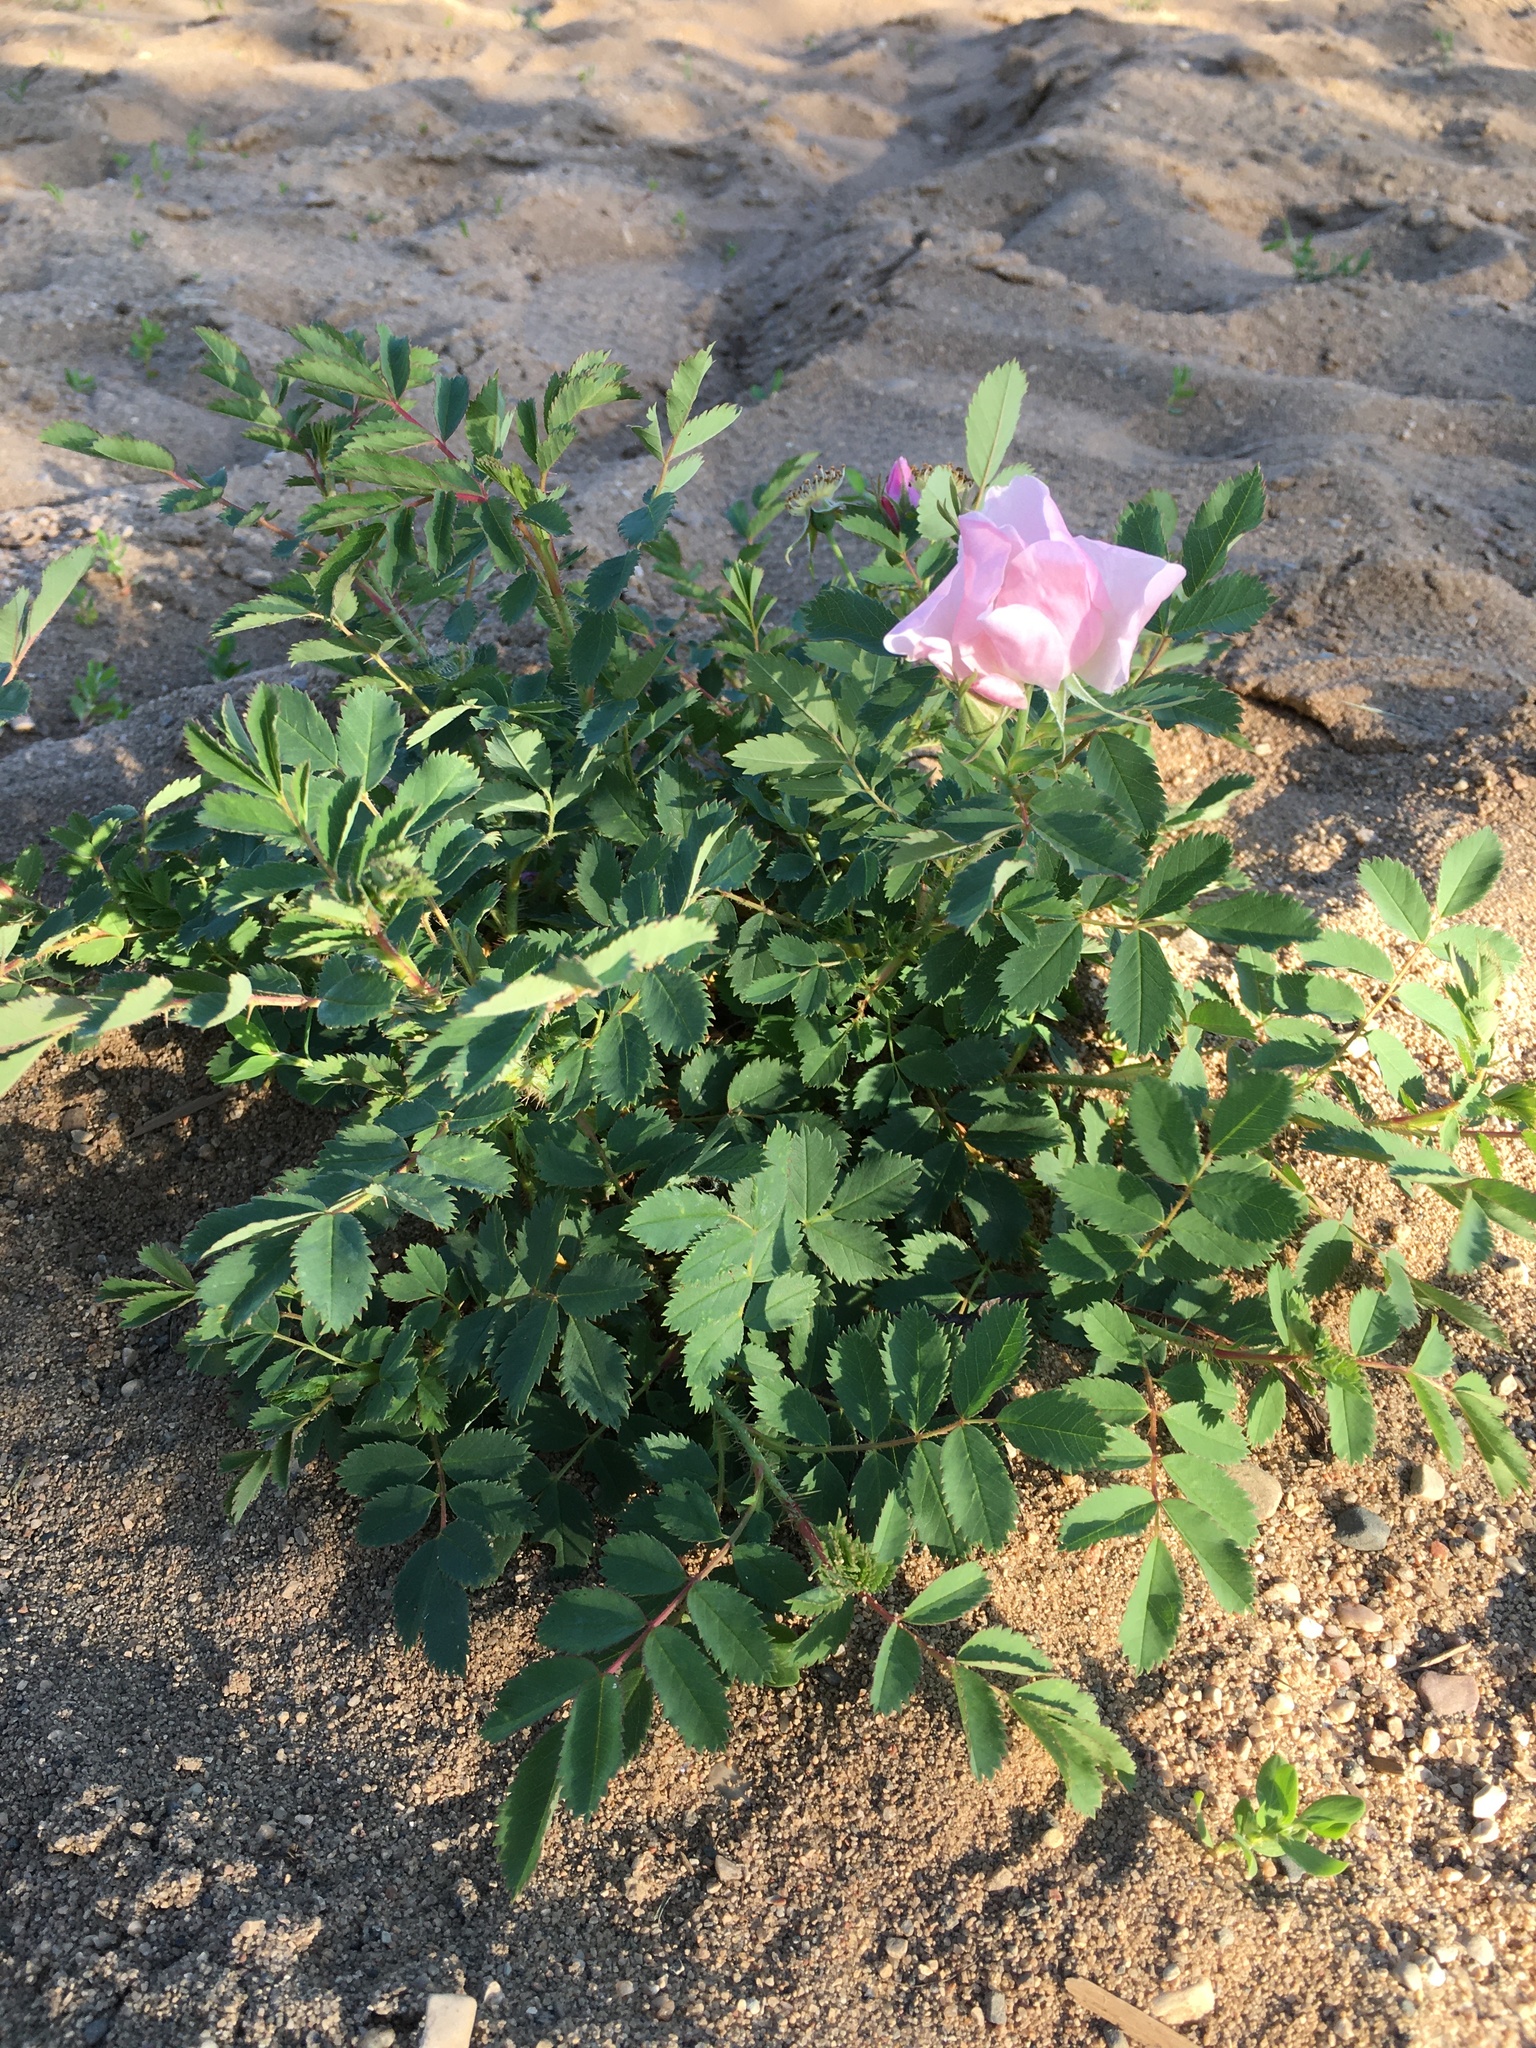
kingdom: Plantae
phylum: Tracheophyta
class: Magnoliopsida
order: Rosales
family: Rosaceae
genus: Rosa
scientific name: Rosa arkansana
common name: Prairie rose
